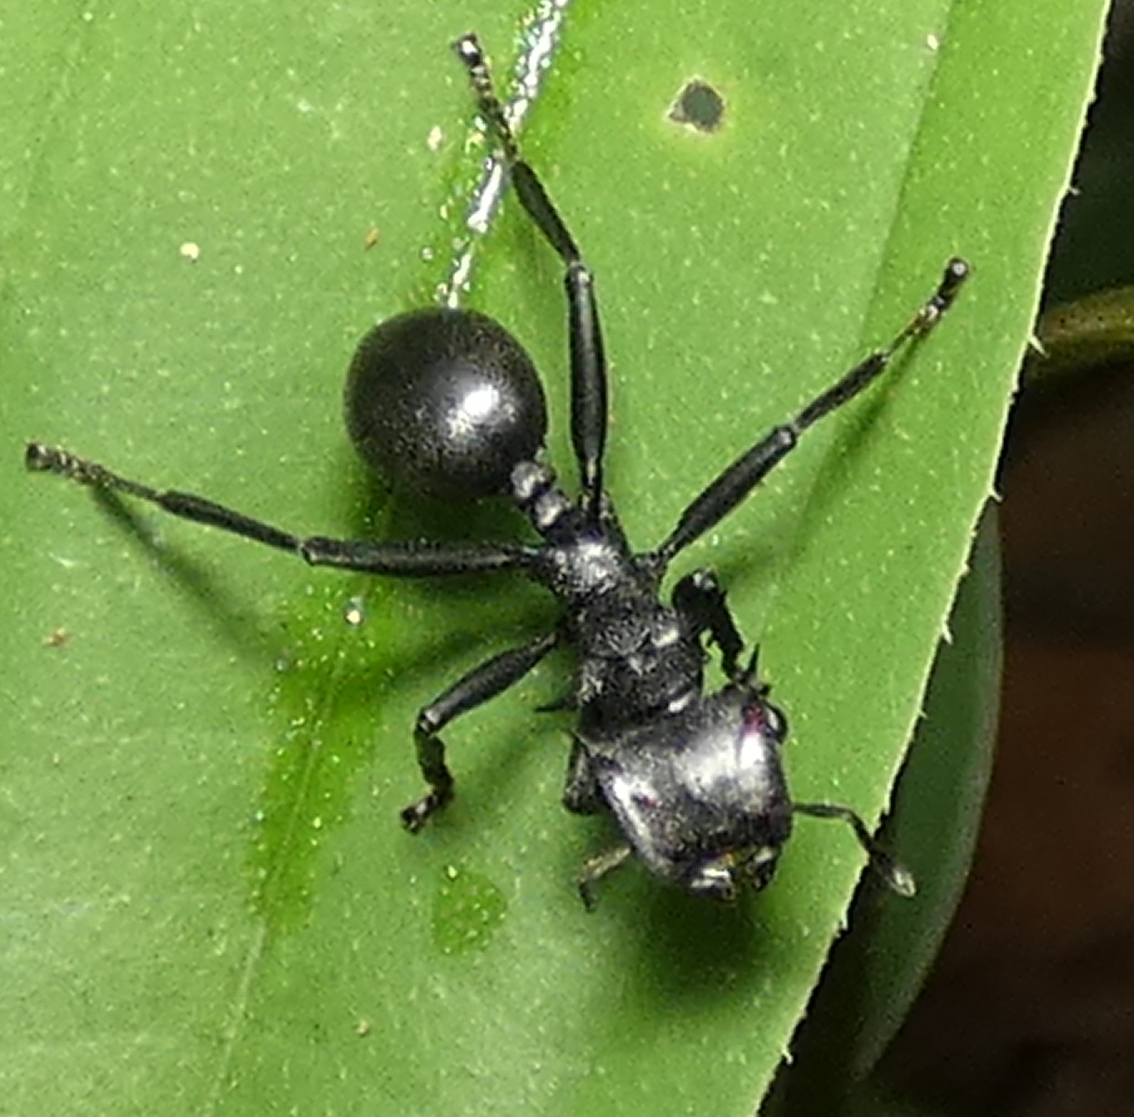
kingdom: Animalia
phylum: Arthropoda
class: Insecta
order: Hymenoptera
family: Formicidae
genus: Cephalotes
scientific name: Cephalotes atratus
